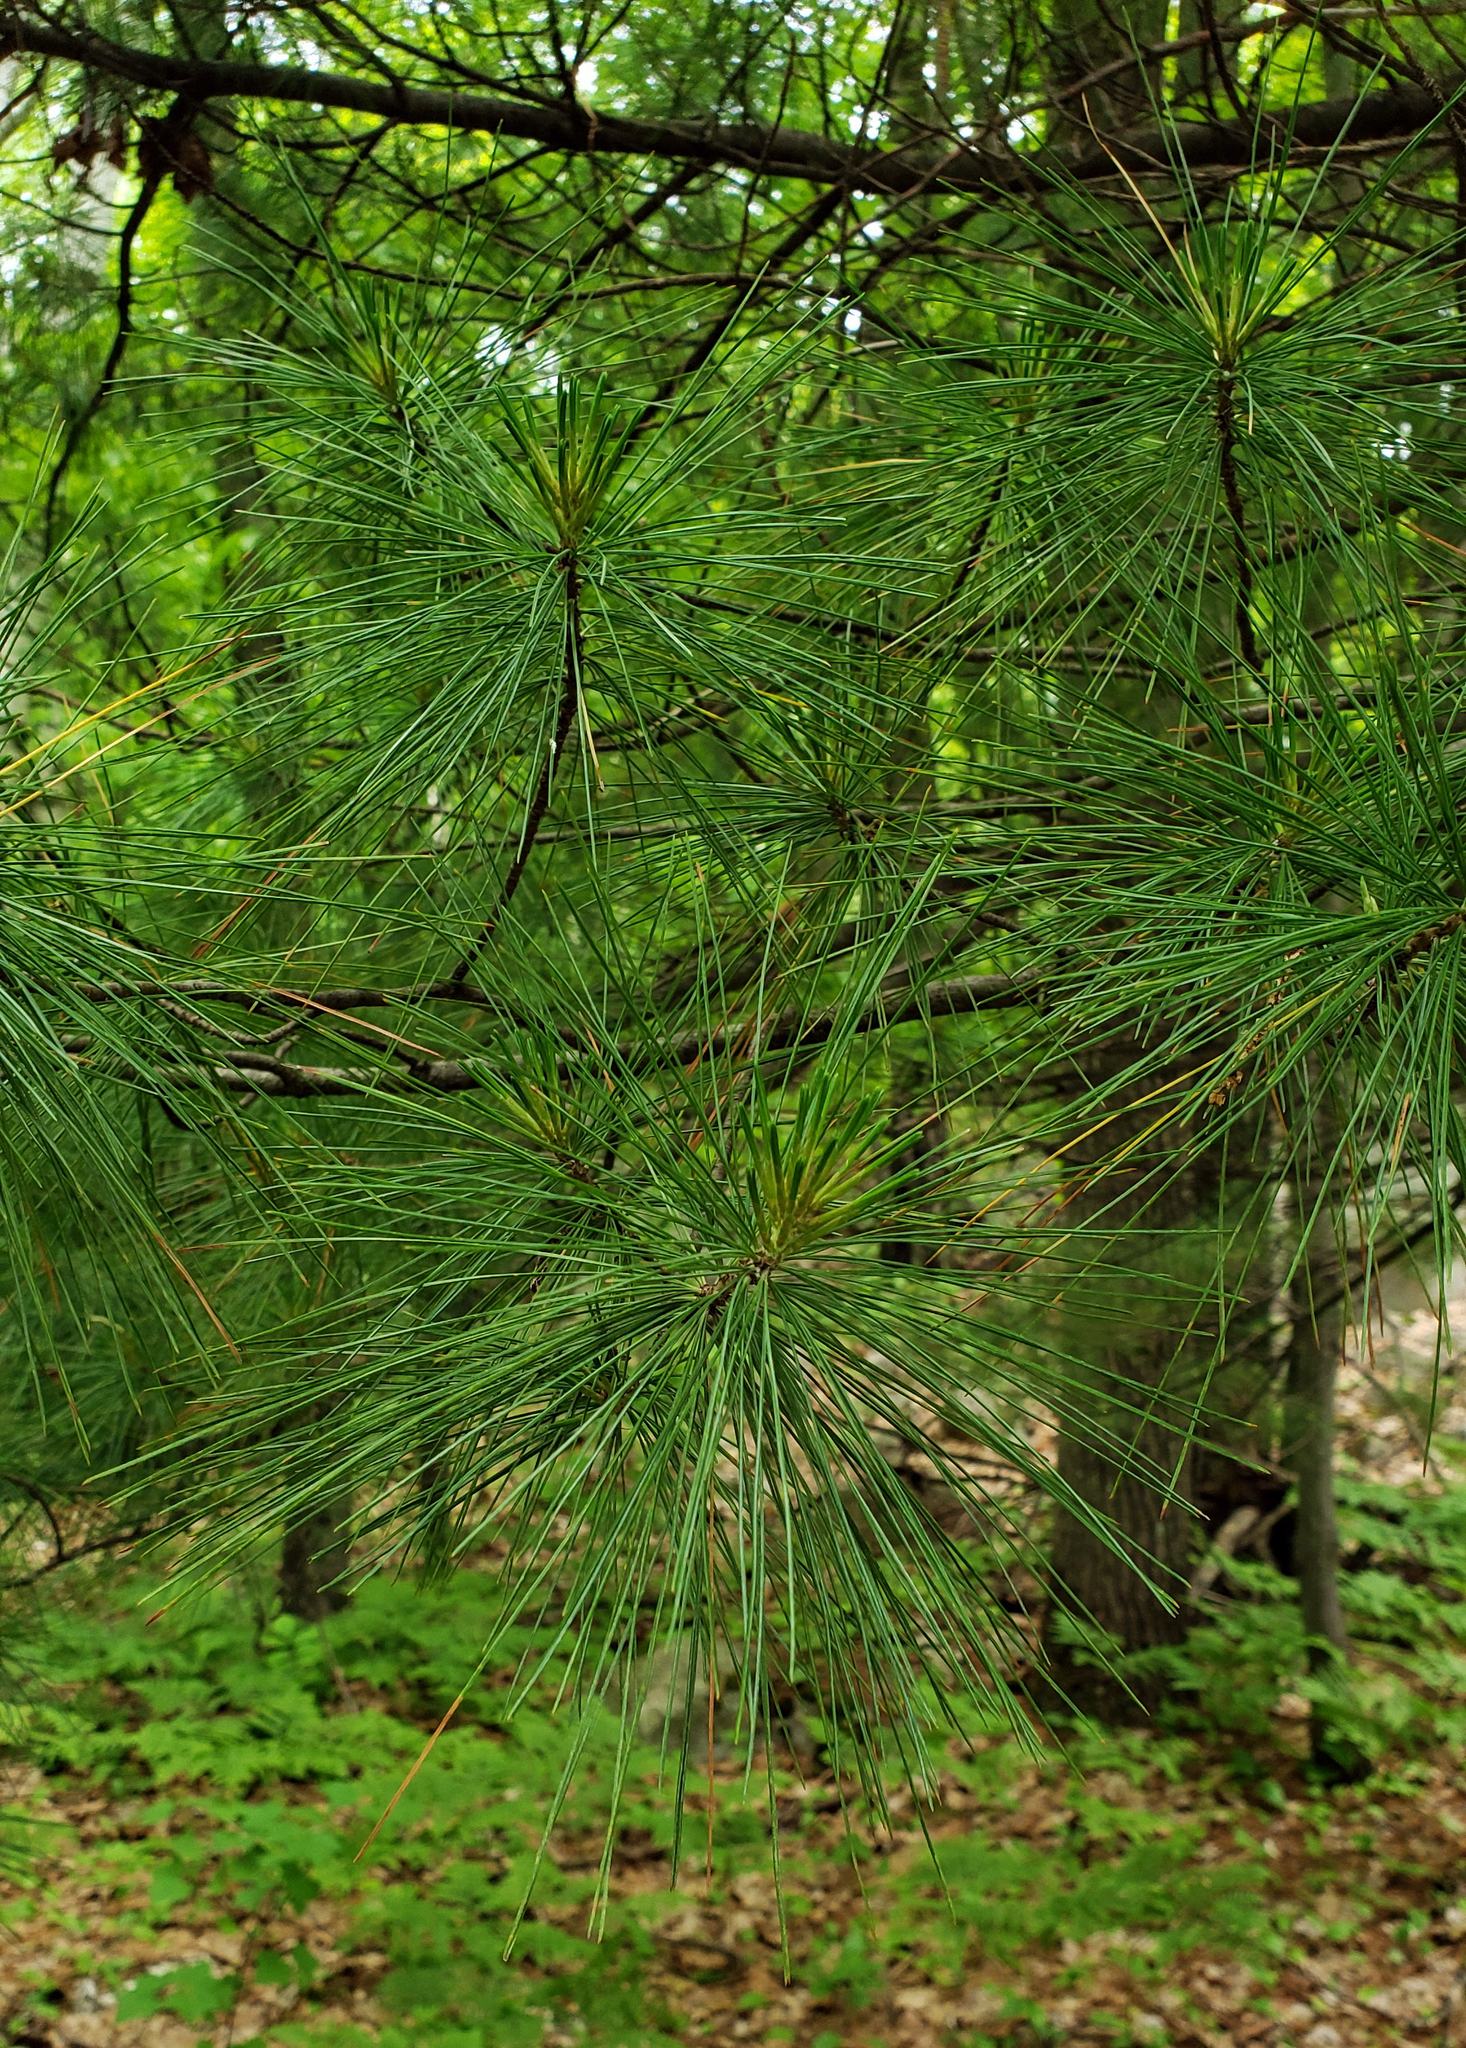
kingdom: Plantae
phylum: Tracheophyta
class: Pinopsida
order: Pinales
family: Pinaceae
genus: Pinus
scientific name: Pinus strobus
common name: Weymouth pine
